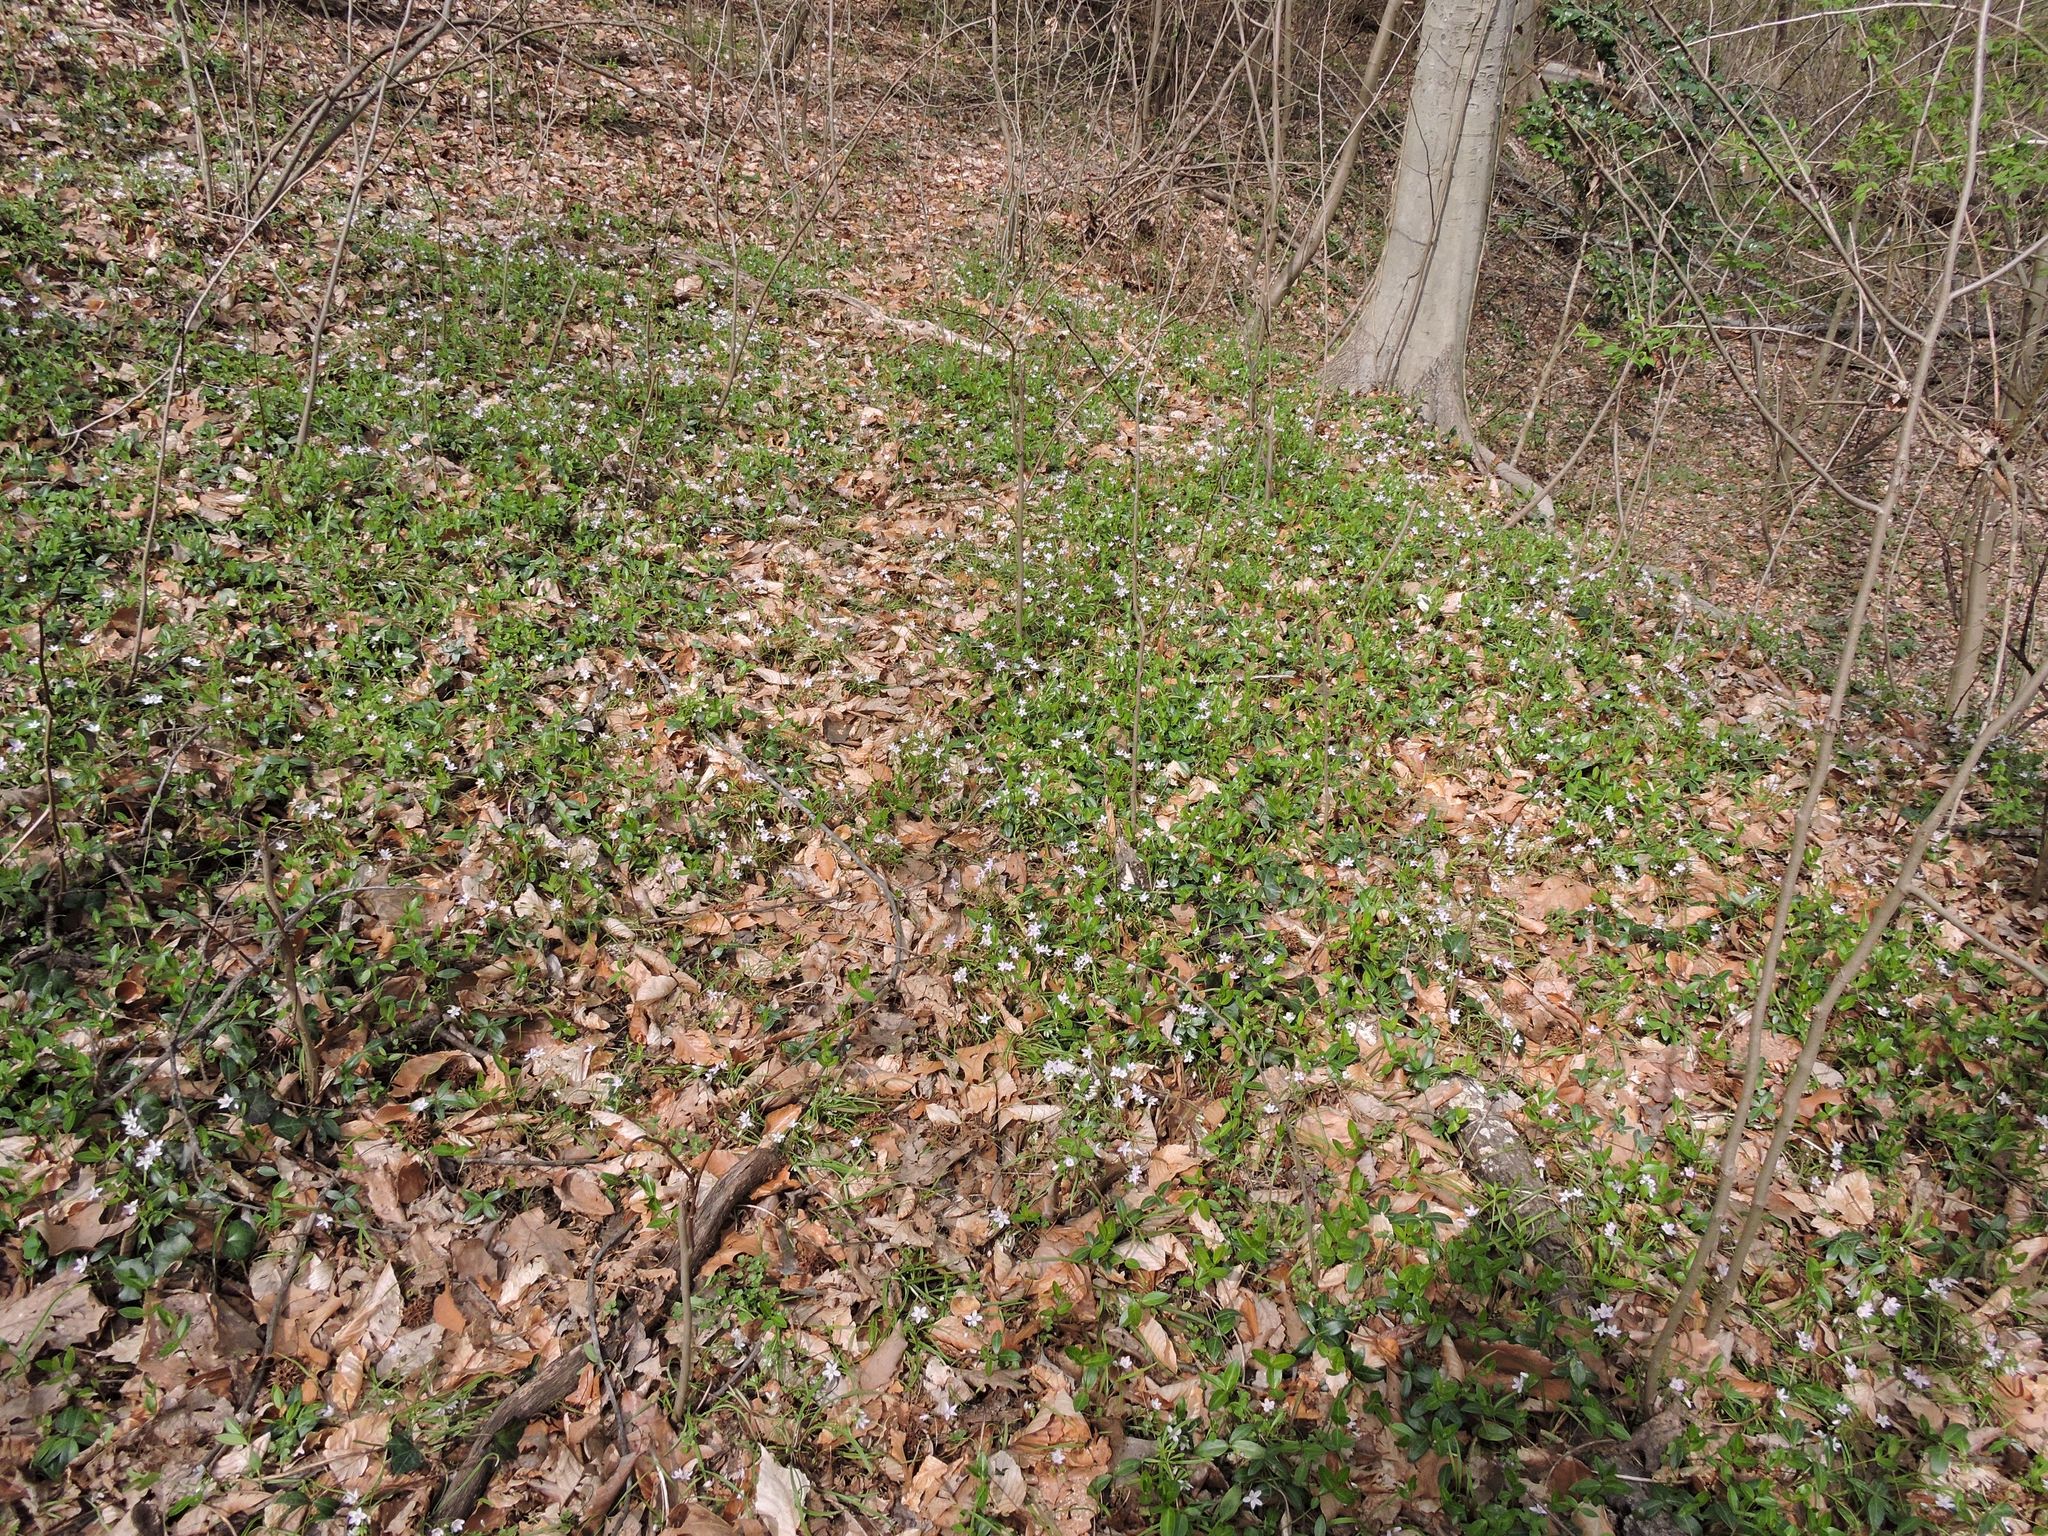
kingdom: Plantae
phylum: Tracheophyta
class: Magnoliopsida
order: Caryophyllales
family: Montiaceae
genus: Claytonia
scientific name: Claytonia virginica
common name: Virginia springbeauty
